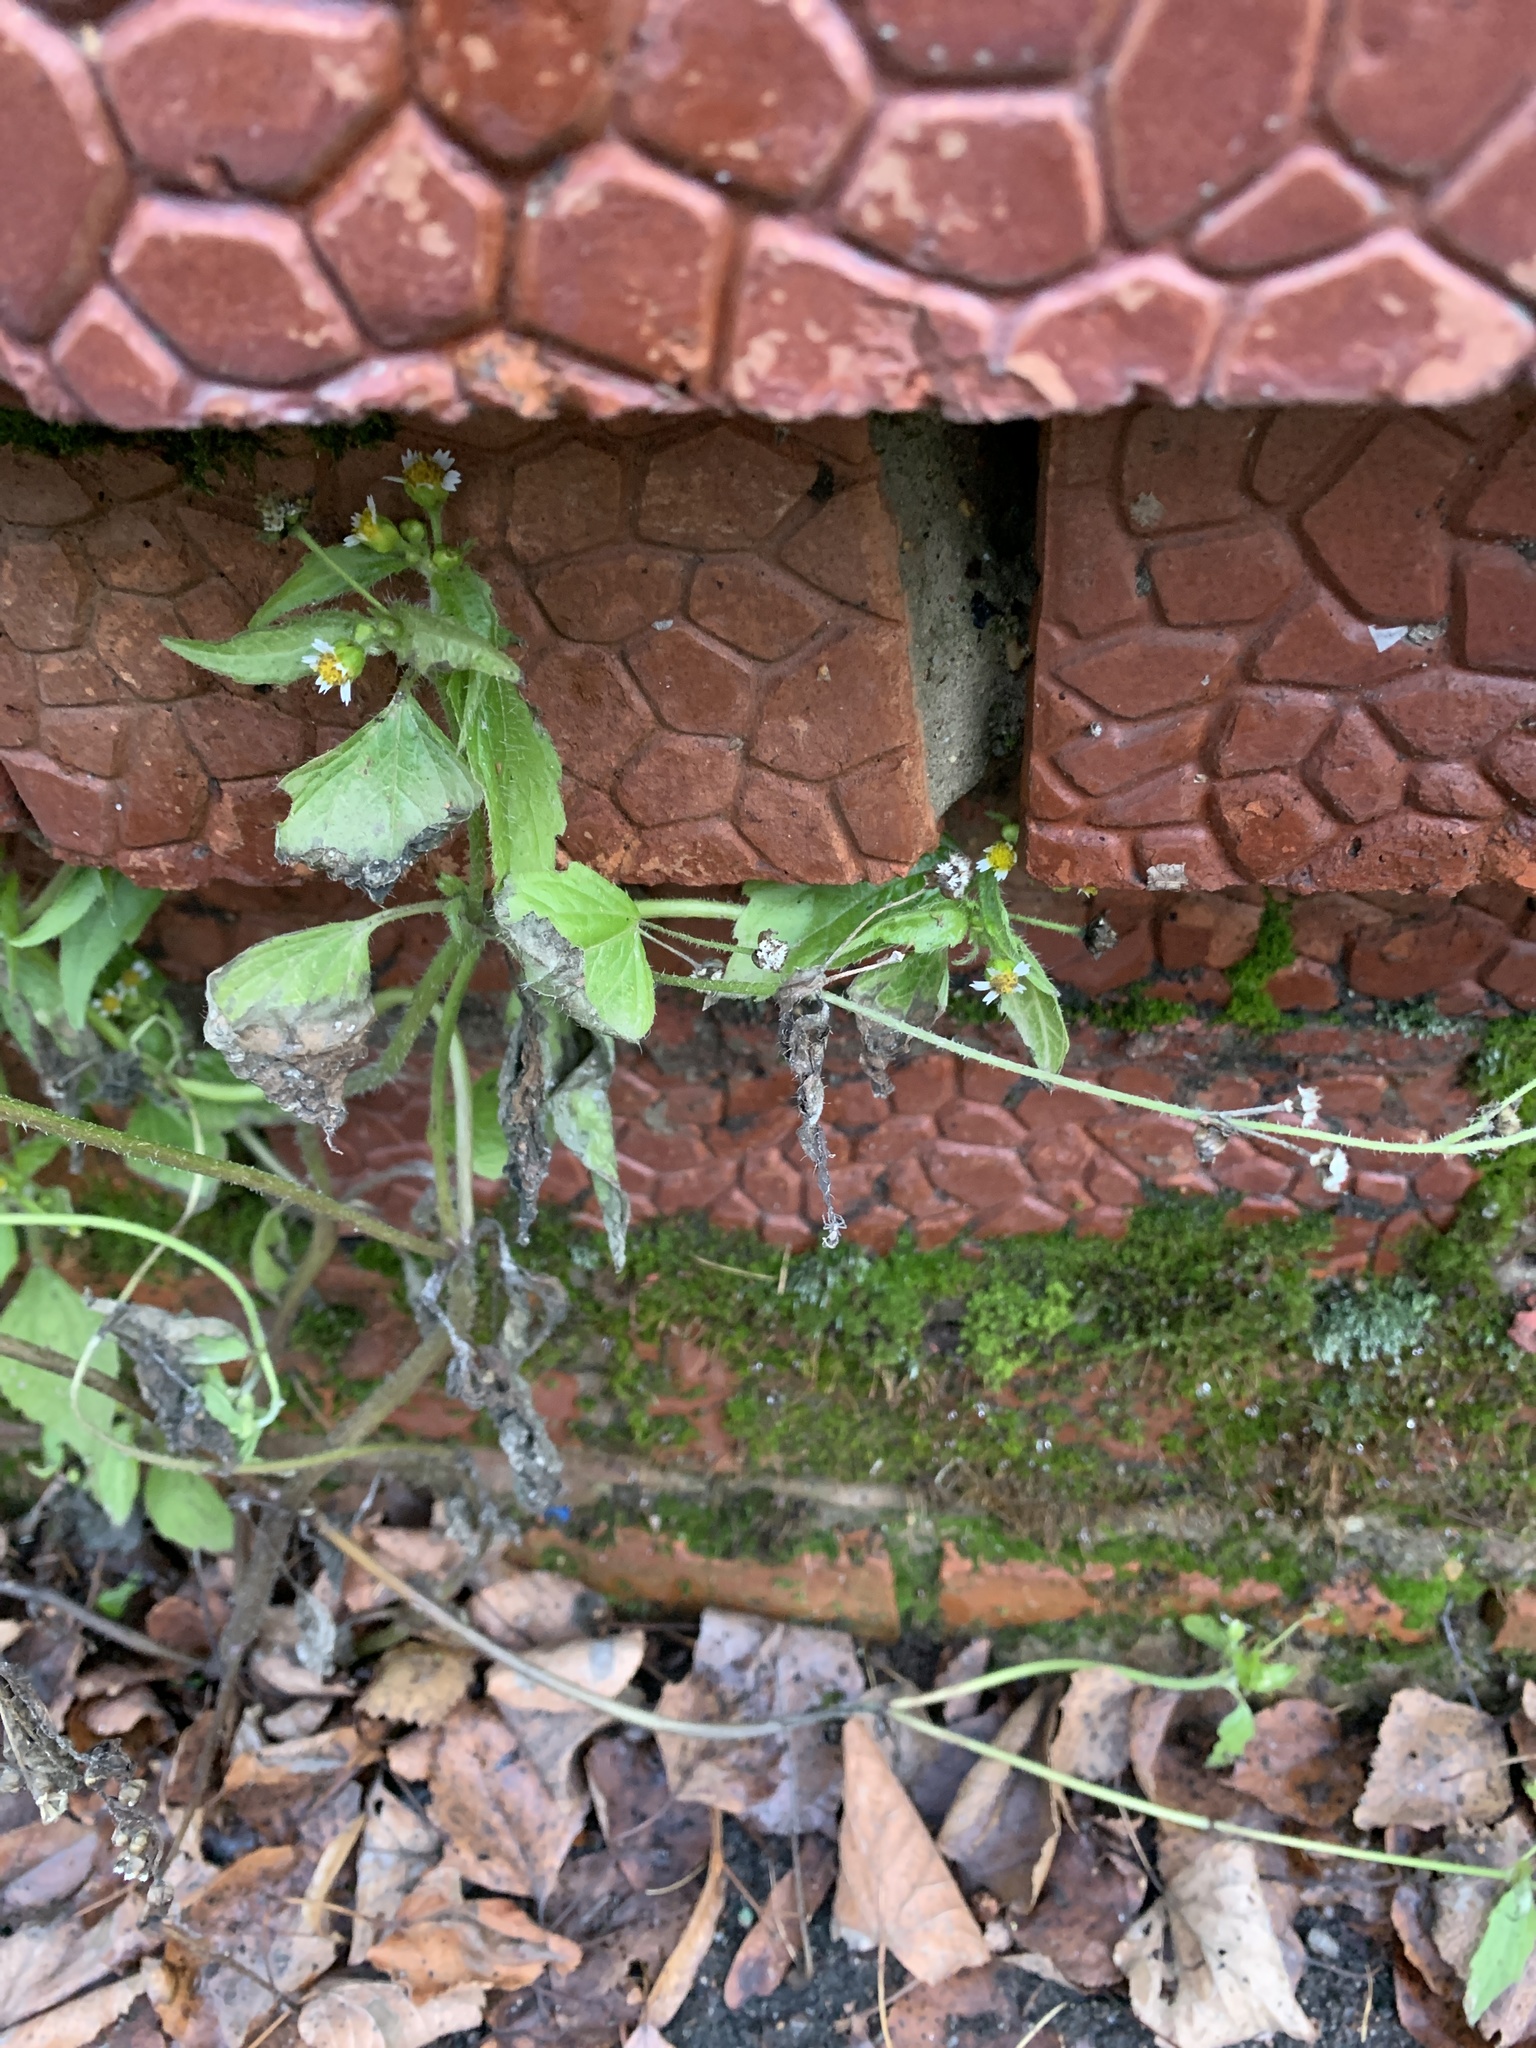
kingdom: Plantae
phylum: Tracheophyta
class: Magnoliopsida
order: Asterales
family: Asteraceae
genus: Galinsoga
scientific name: Galinsoga quadriradiata
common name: Shaggy soldier
